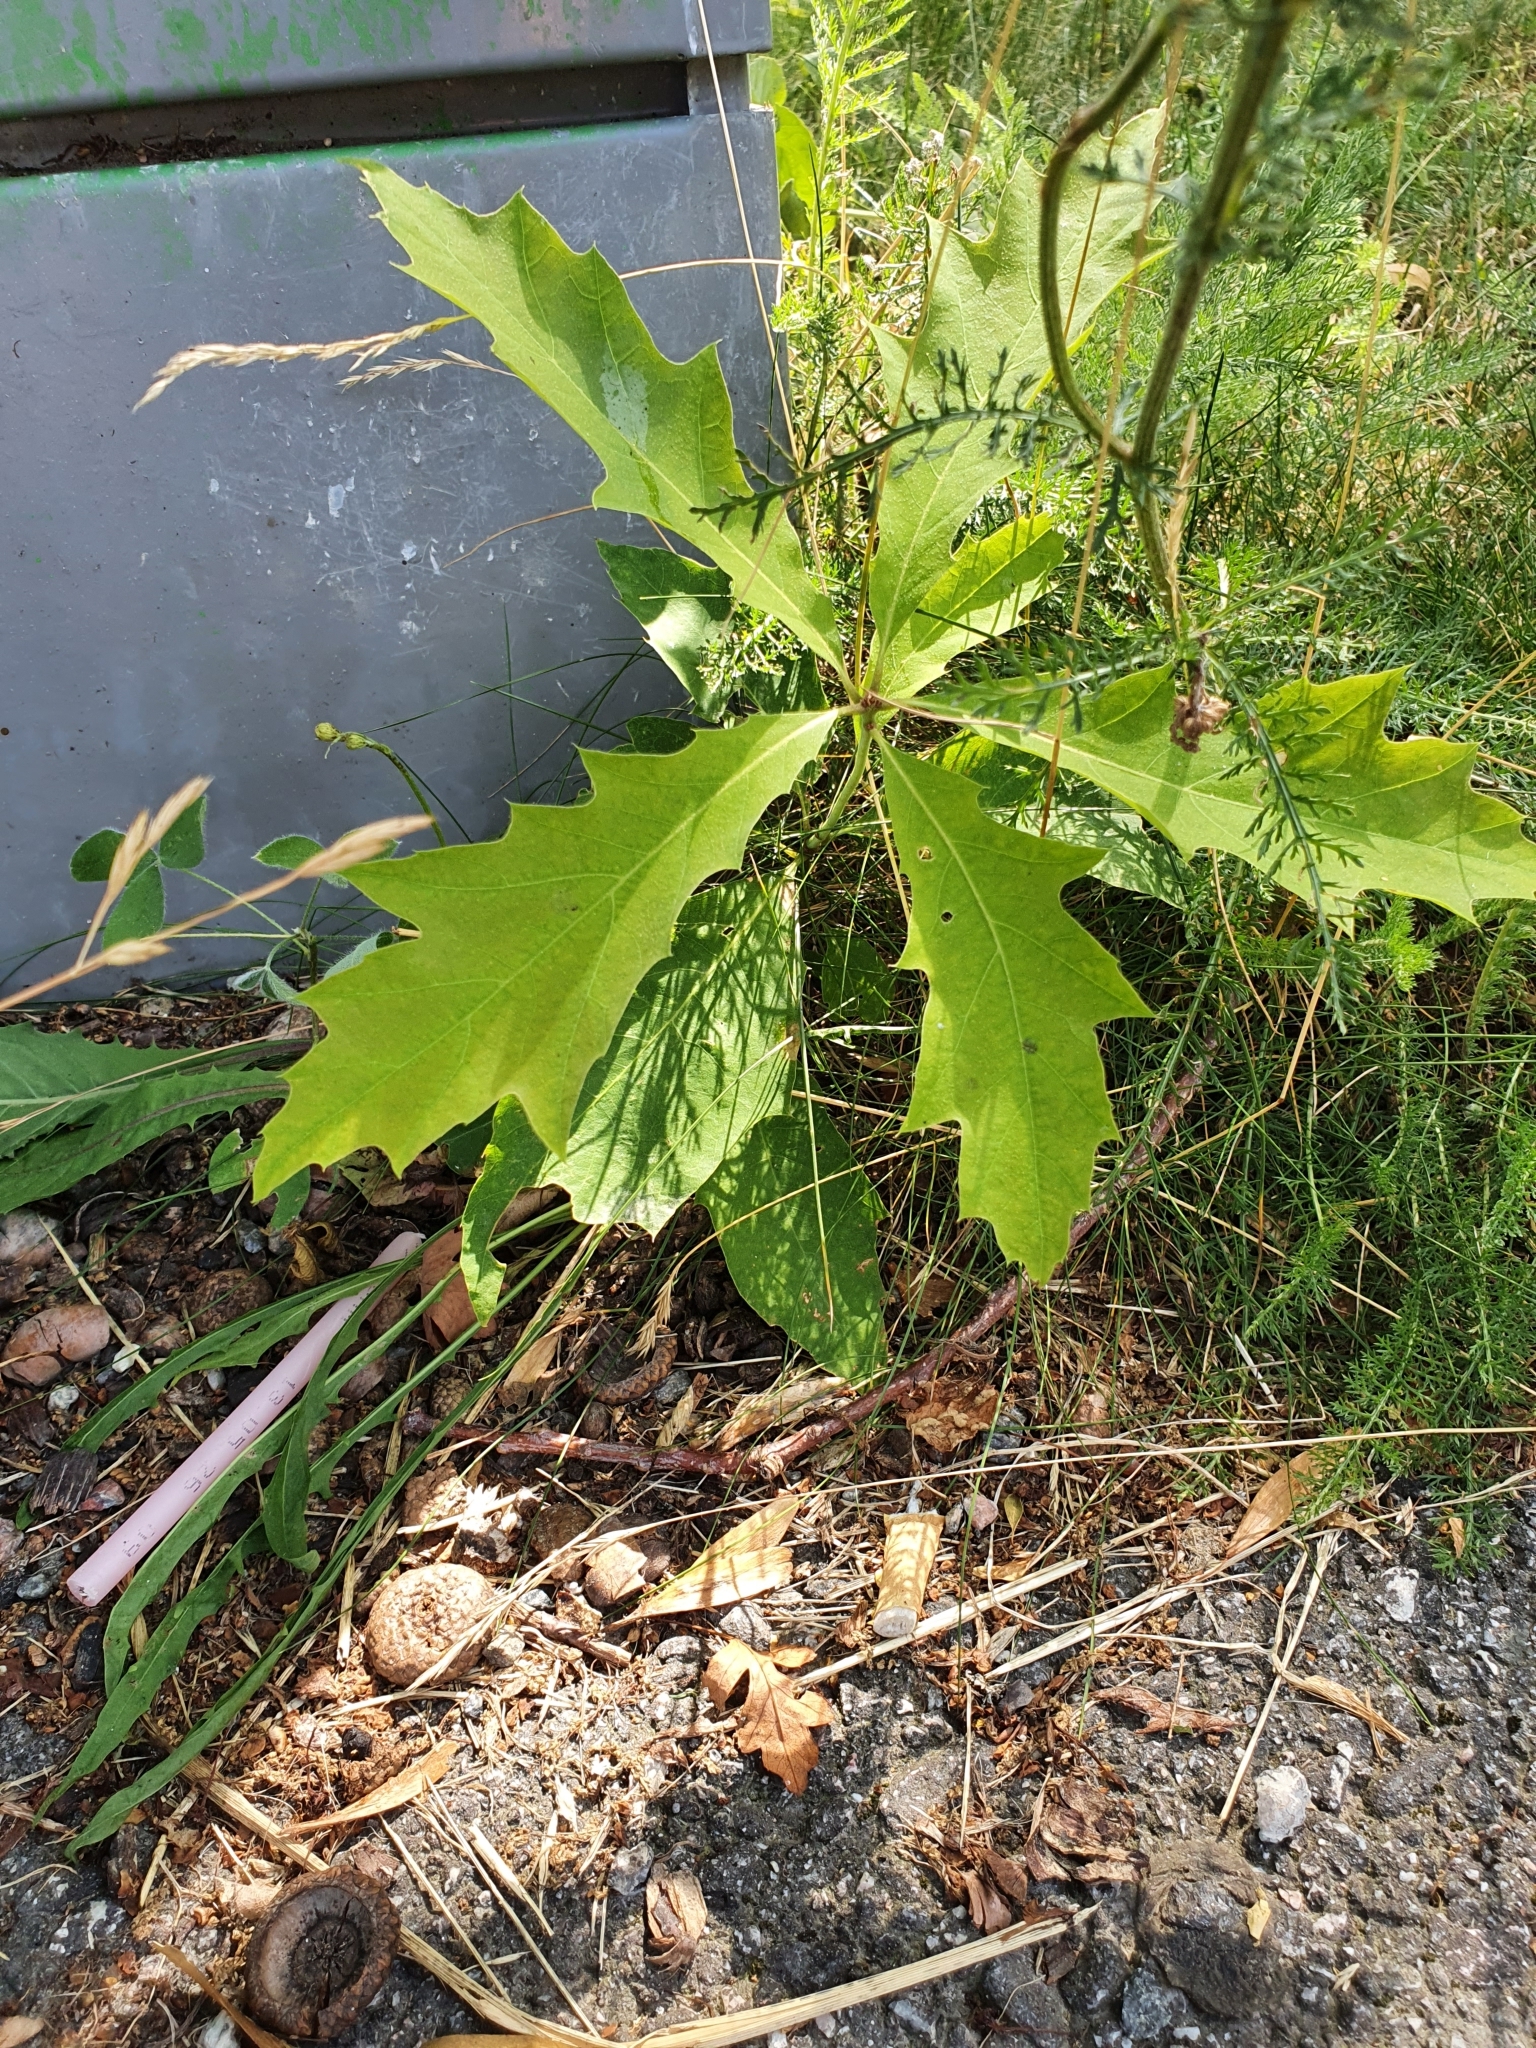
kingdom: Plantae
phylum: Tracheophyta
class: Magnoliopsida
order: Fagales
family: Fagaceae
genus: Quercus
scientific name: Quercus rubra
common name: Red oak
